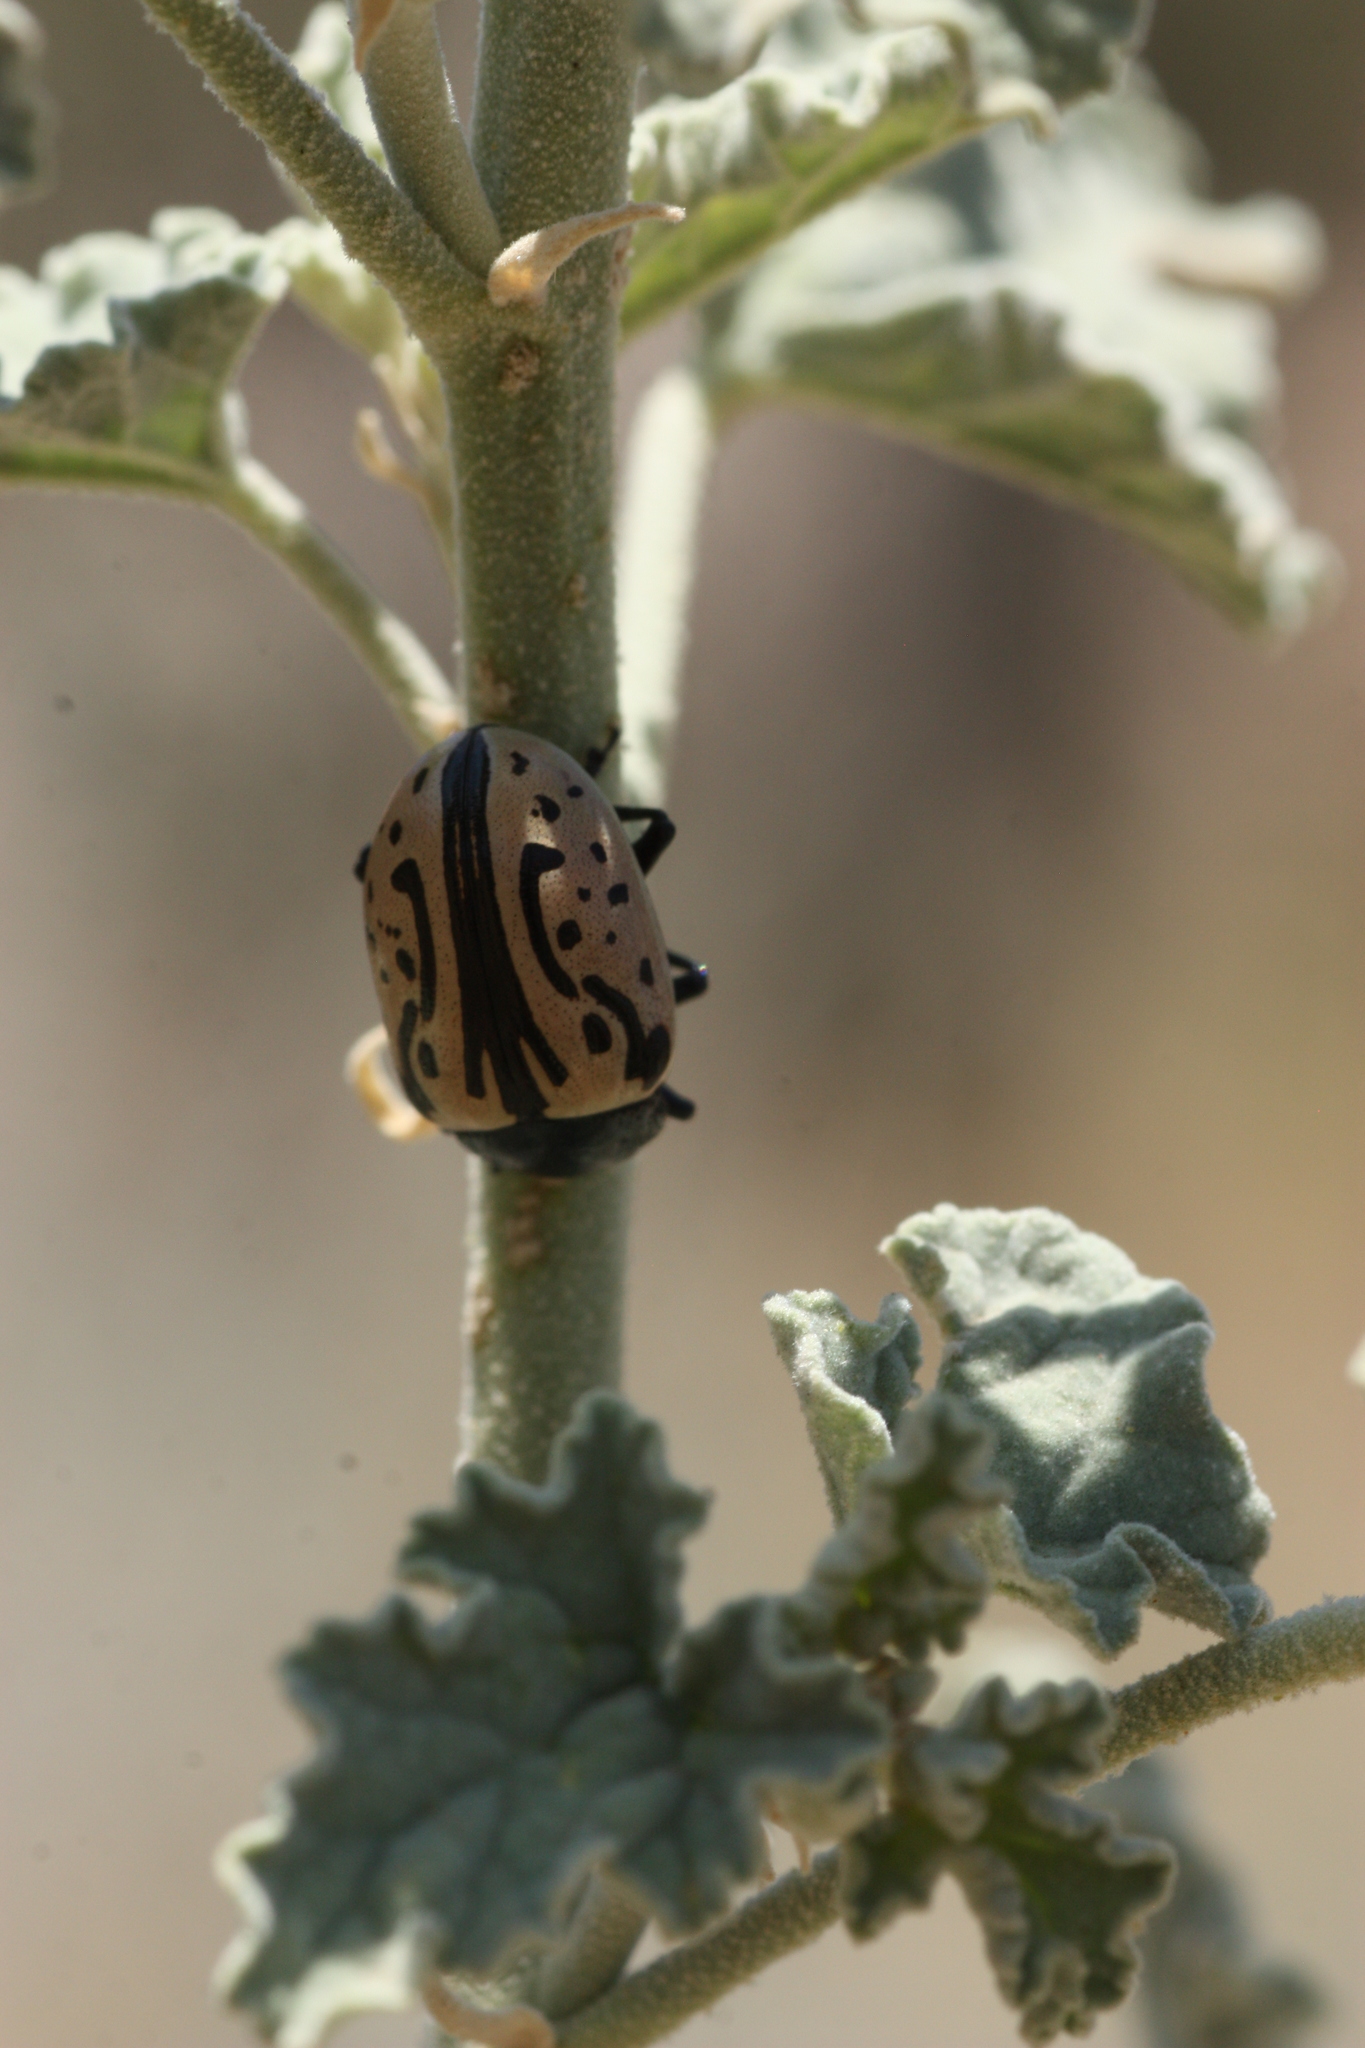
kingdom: Animalia
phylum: Arthropoda
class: Insecta
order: Coleoptera
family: Chrysomelidae
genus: Calligrapha
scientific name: Calligrapha dislocata
